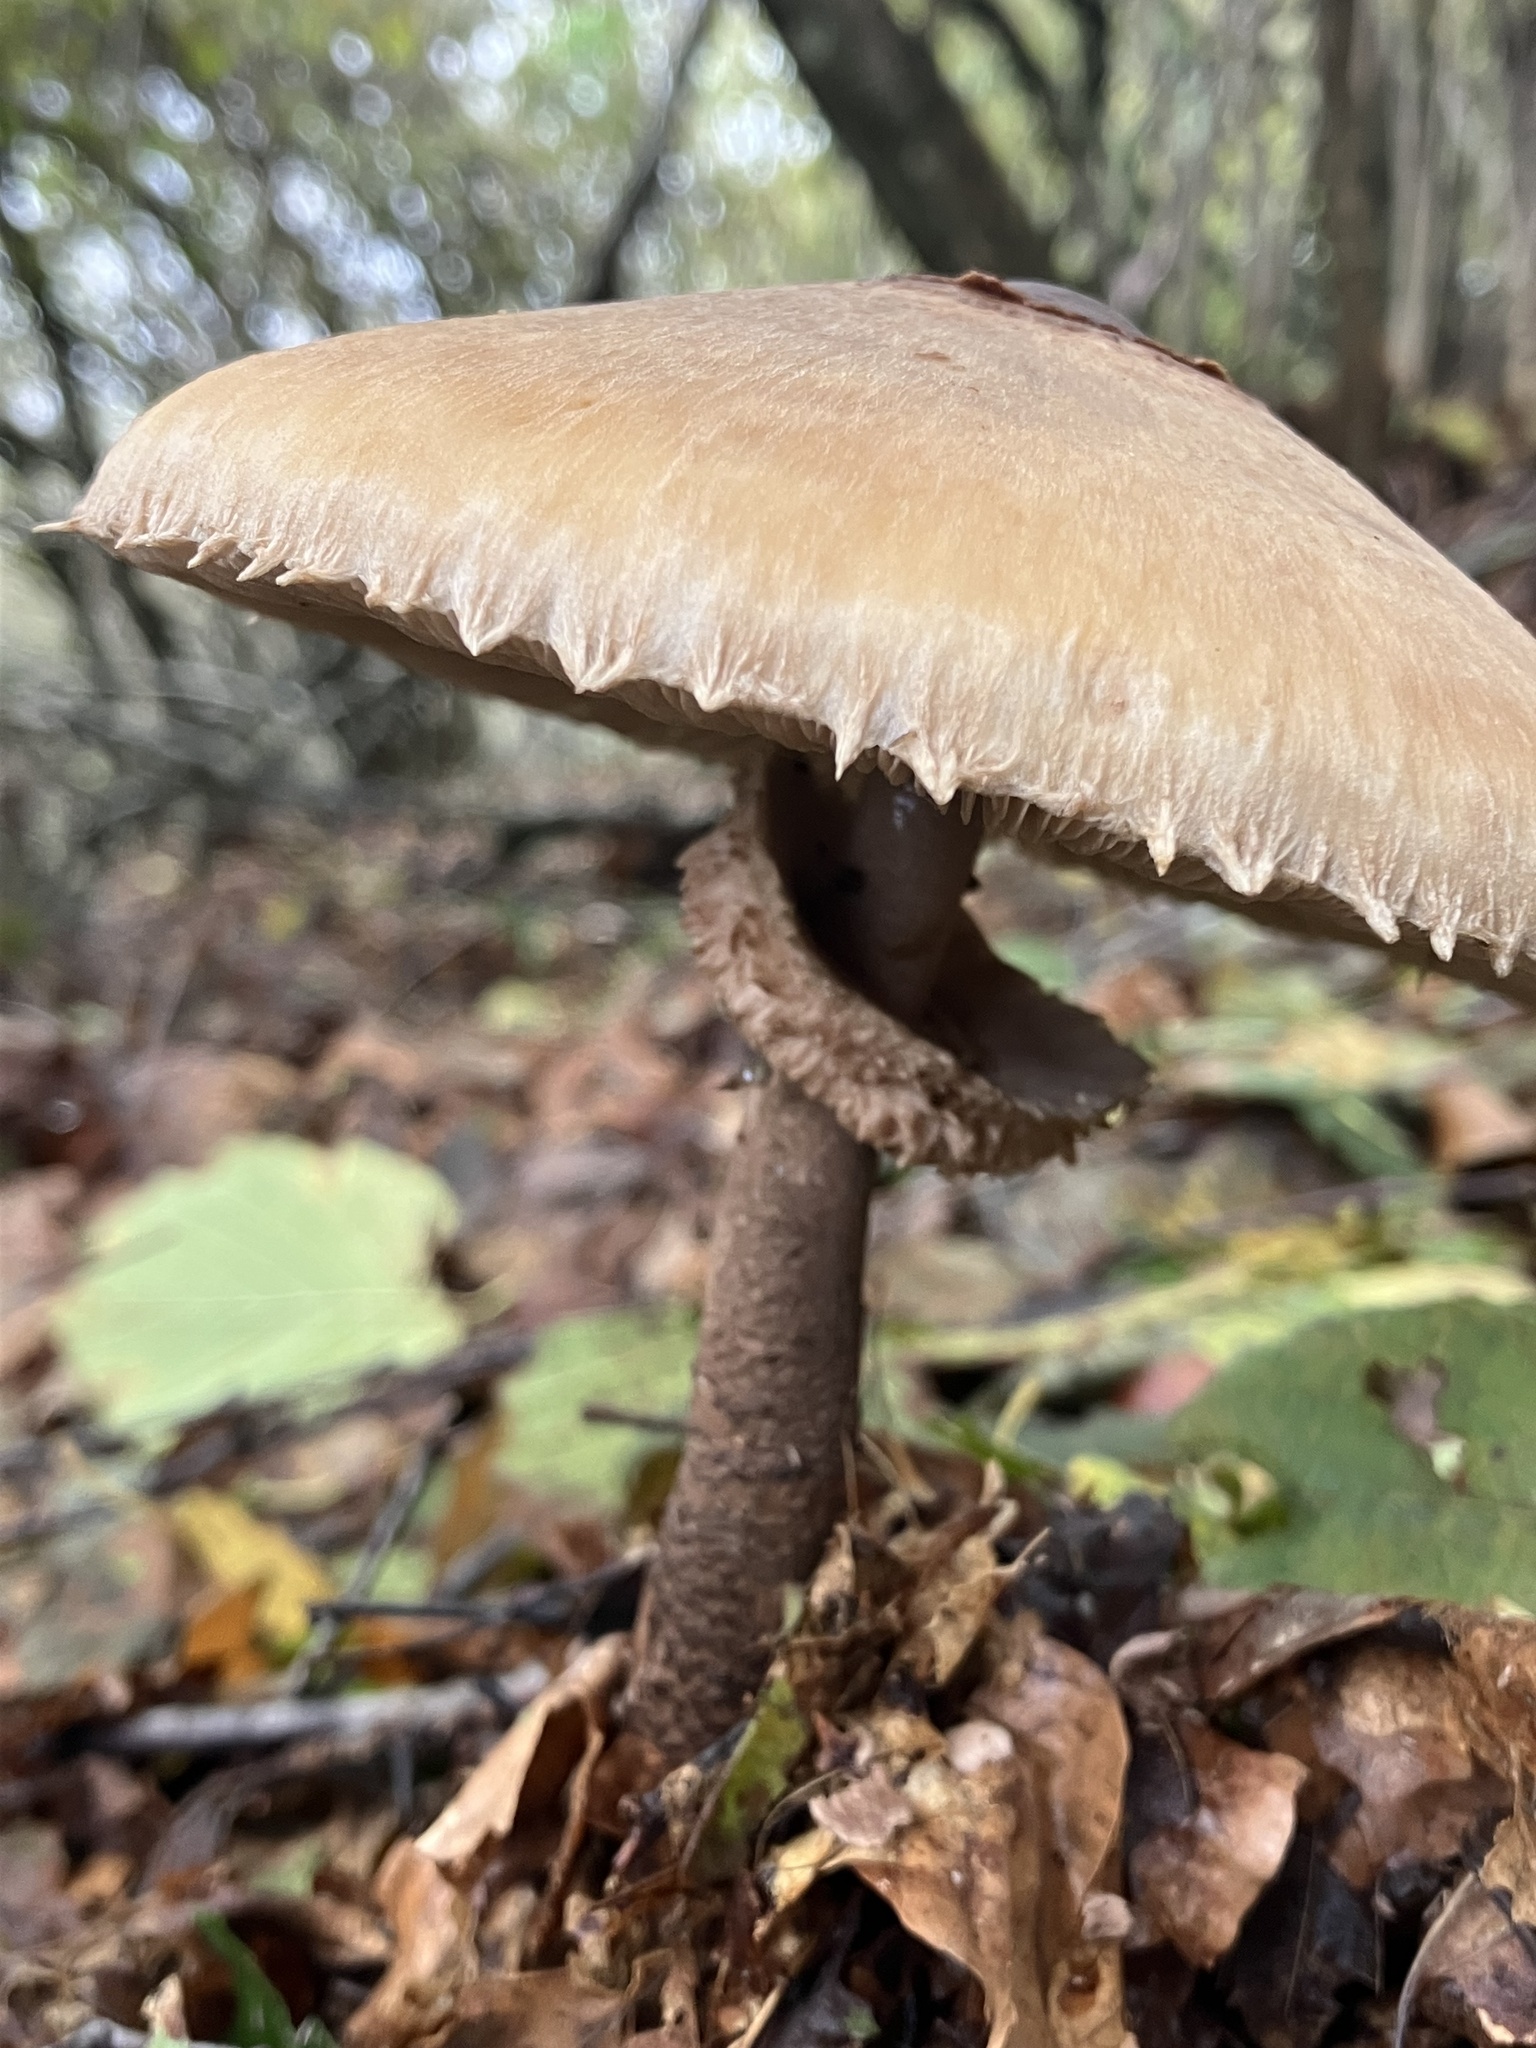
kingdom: Fungi
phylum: Basidiomycota
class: Agaricomycetes
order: Agaricales
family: Agaricaceae
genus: Macrolepiota
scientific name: Macrolepiota procera
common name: Parasol
